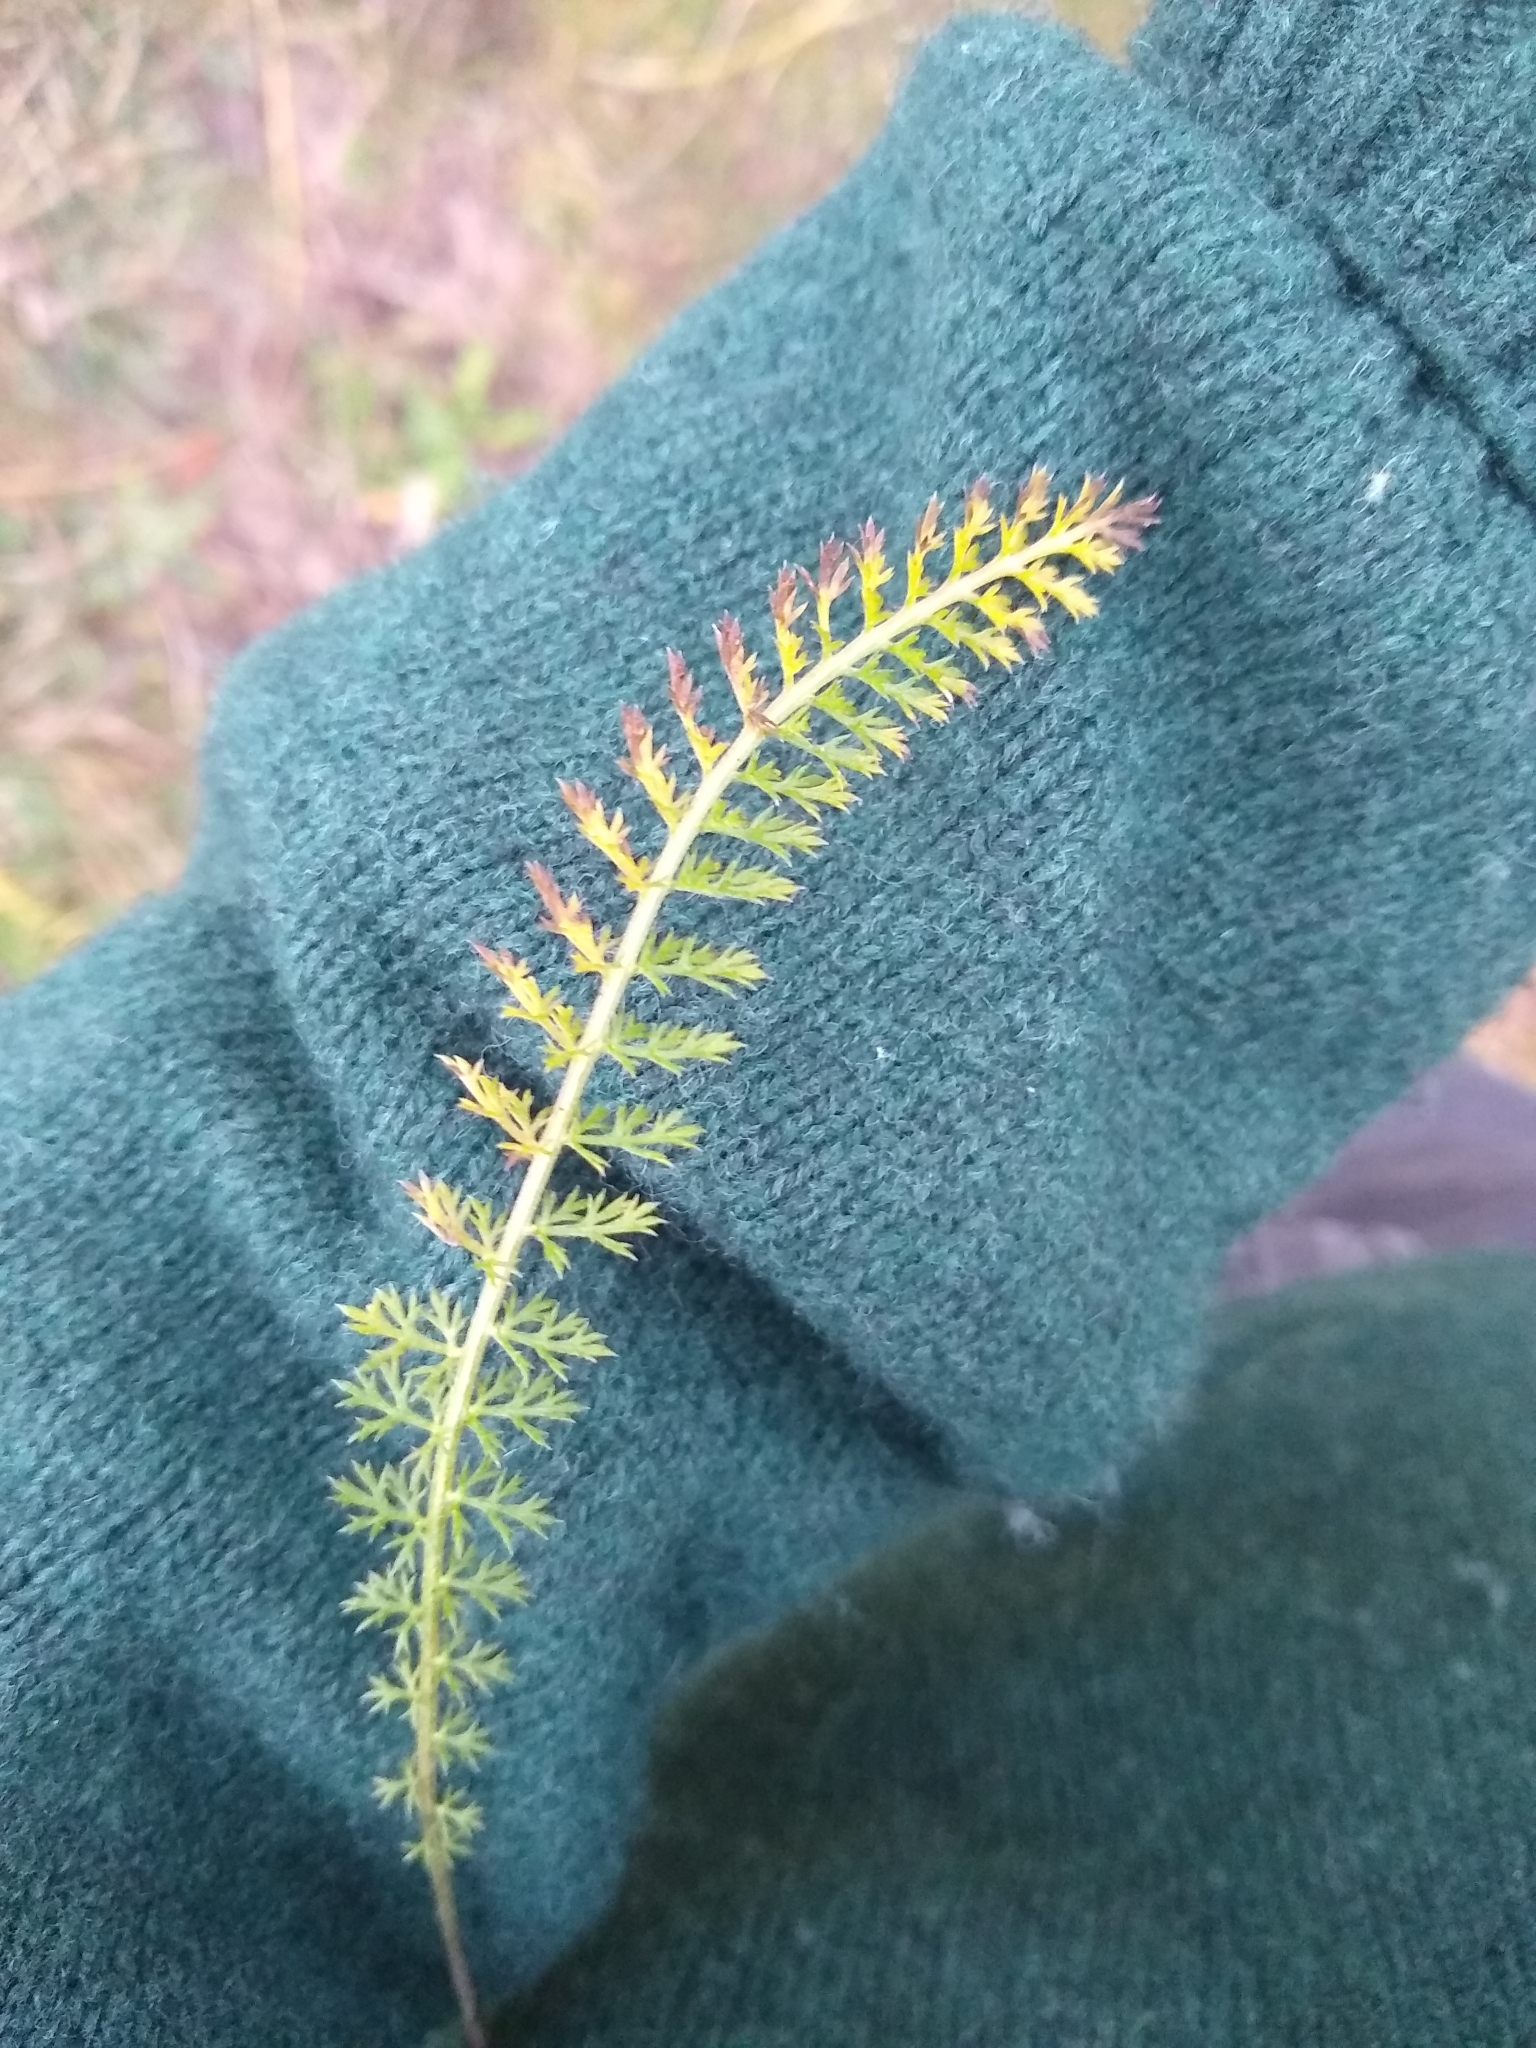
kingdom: Plantae
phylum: Tracheophyta
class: Magnoliopsida
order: Asterales
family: Asteraceae
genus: Achillea
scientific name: Achillea millefolium
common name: Yarrow
